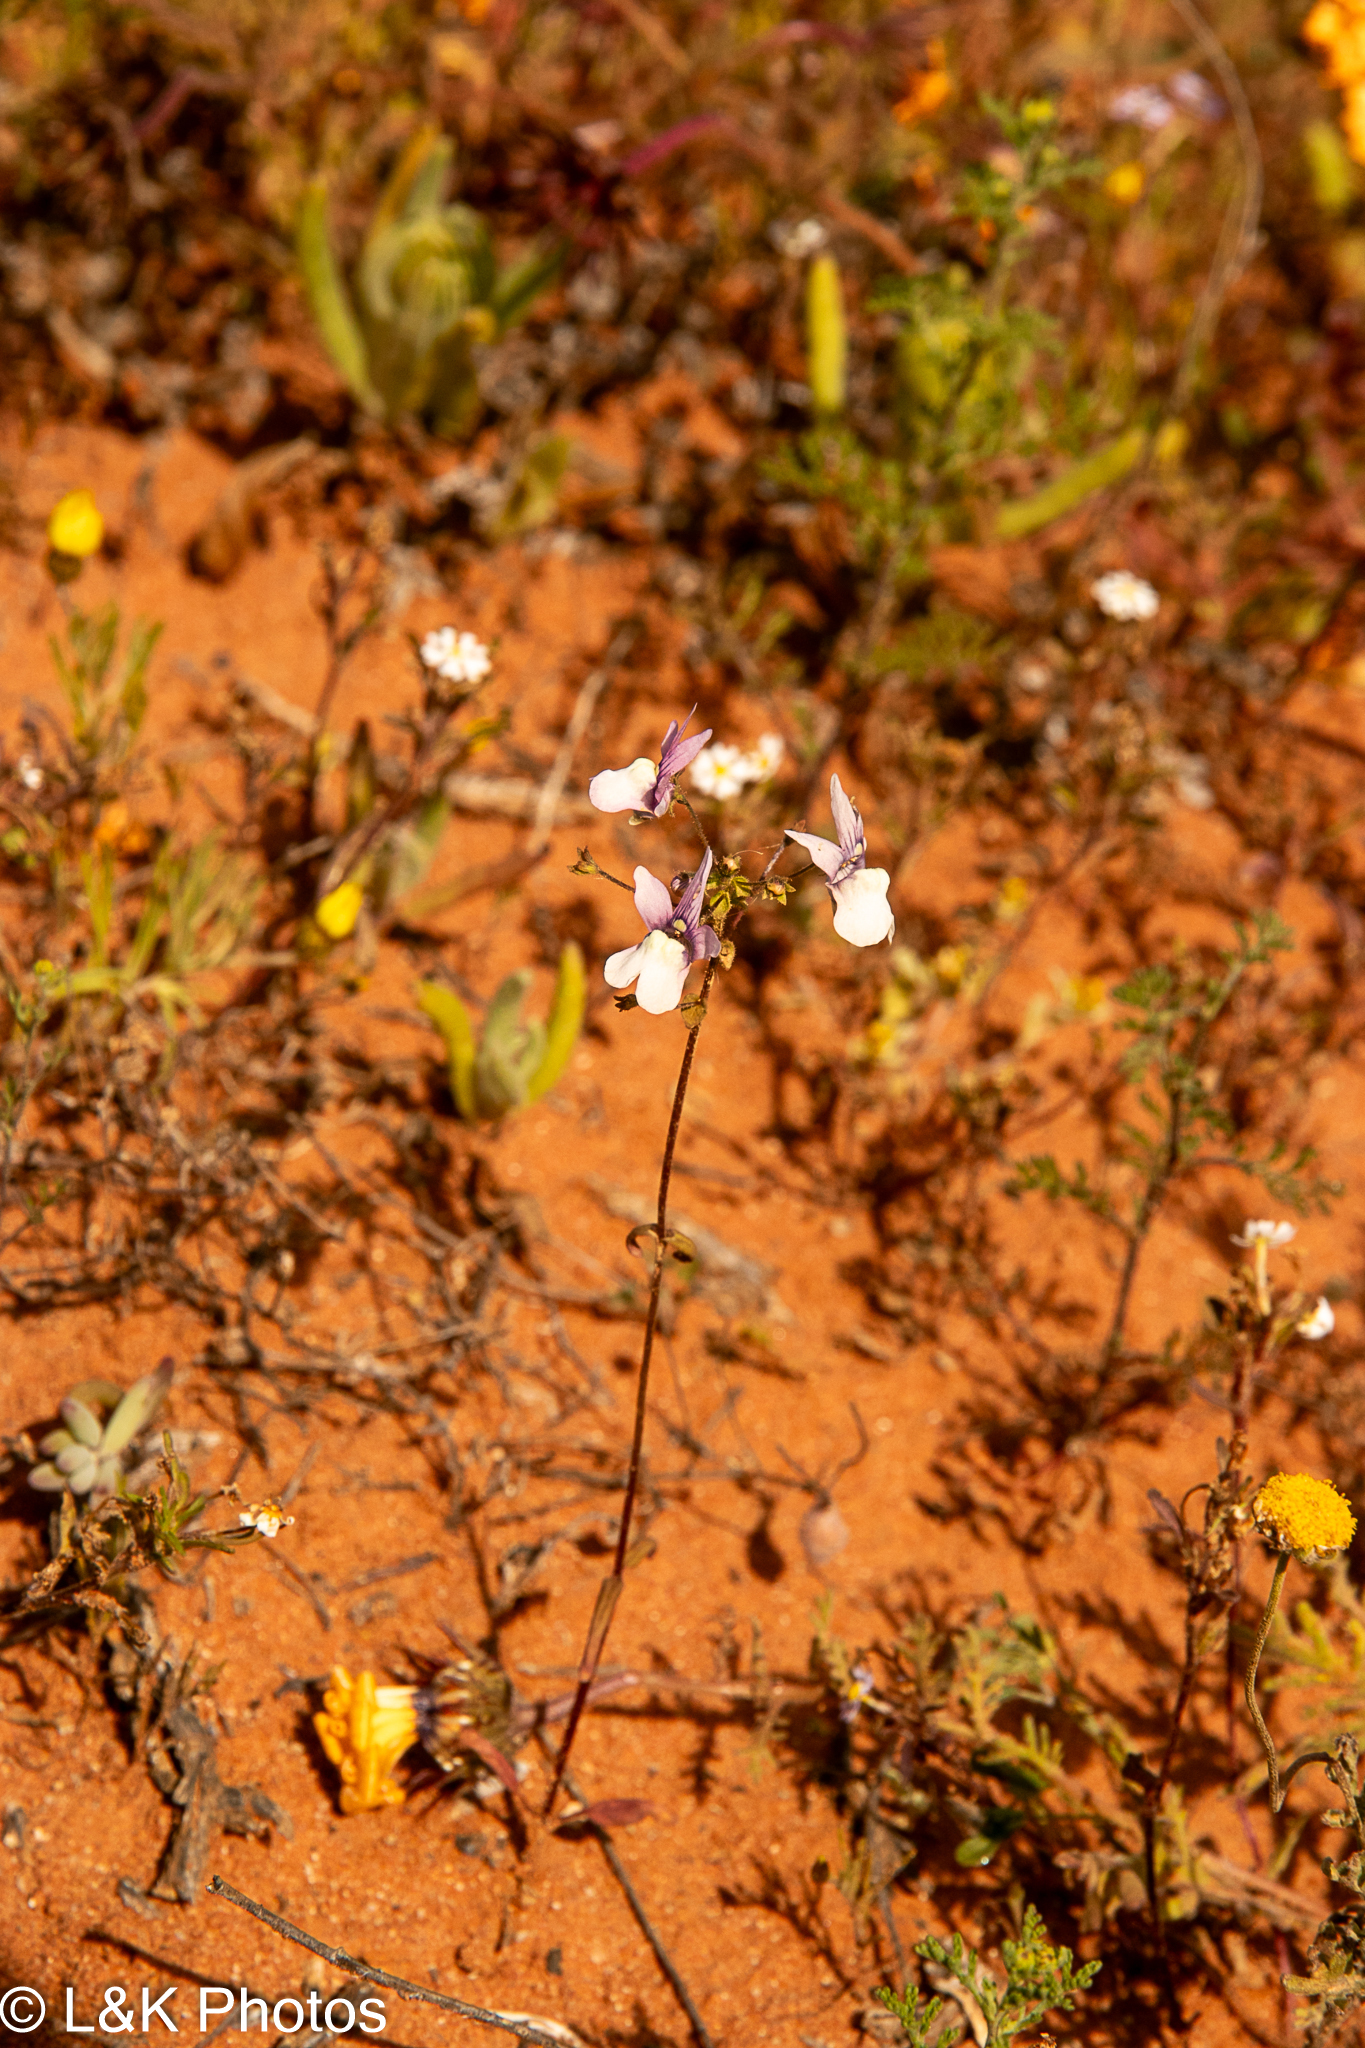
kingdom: Plantae
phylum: Tracheophyta
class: Magnoliopsida
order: Lamiales
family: Scrophulariaceae
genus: Nemesia
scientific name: Nemesia euryceras
